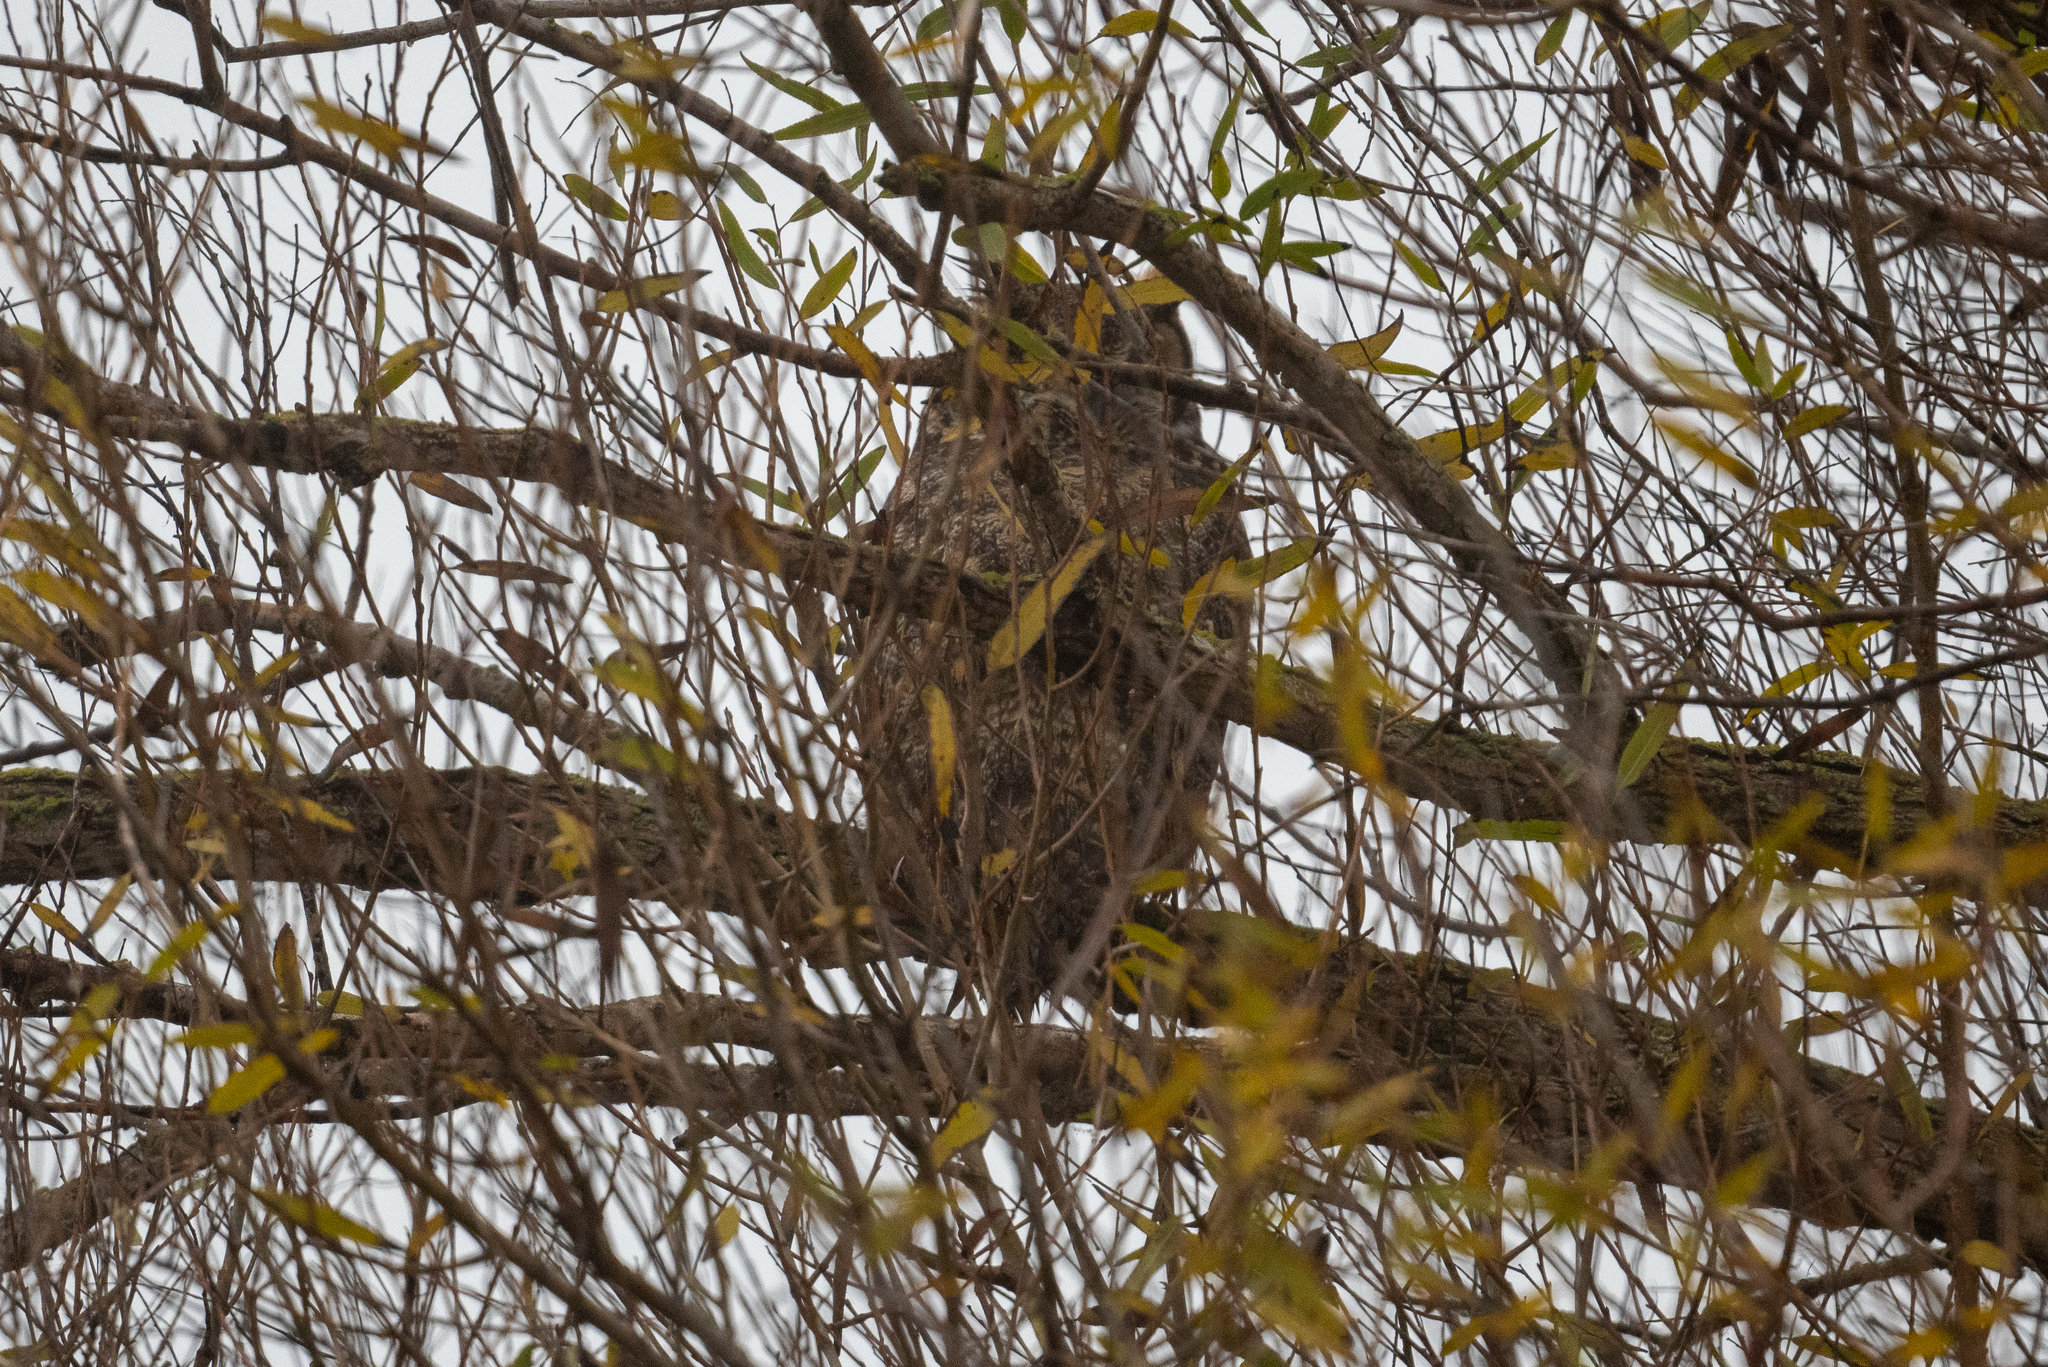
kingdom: Animalia
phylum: Chordata
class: Aves
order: Strigiformes
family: Strigidae
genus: Bubo
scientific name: Bubo virginianus
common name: Great horned owl
